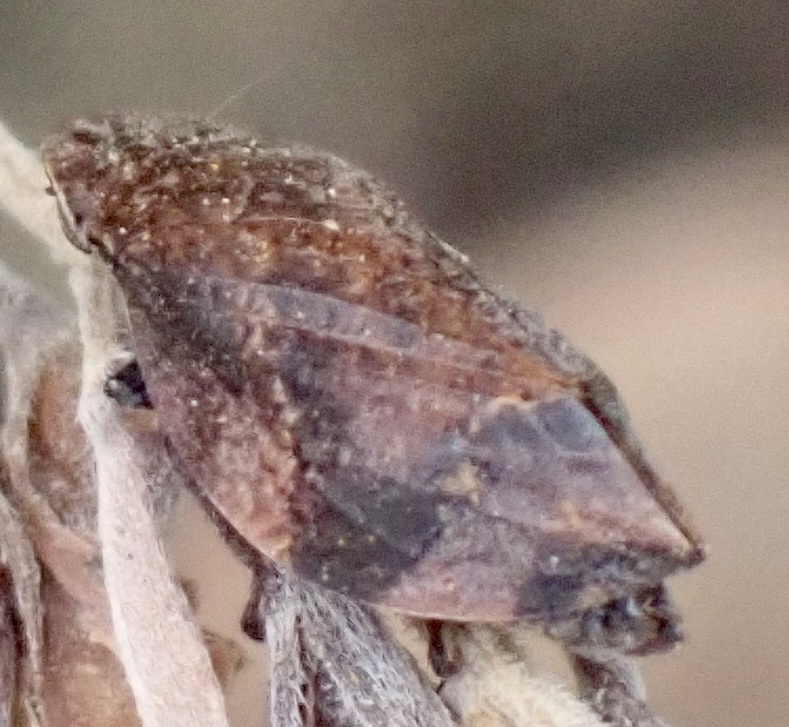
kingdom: Animalia
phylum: Arthropoda
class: Insecta
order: Hemiptera
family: Aphrophoridae
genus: Lepyronia
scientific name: Lepyronia quadrangularis
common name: Diamond-backed spittlebug
